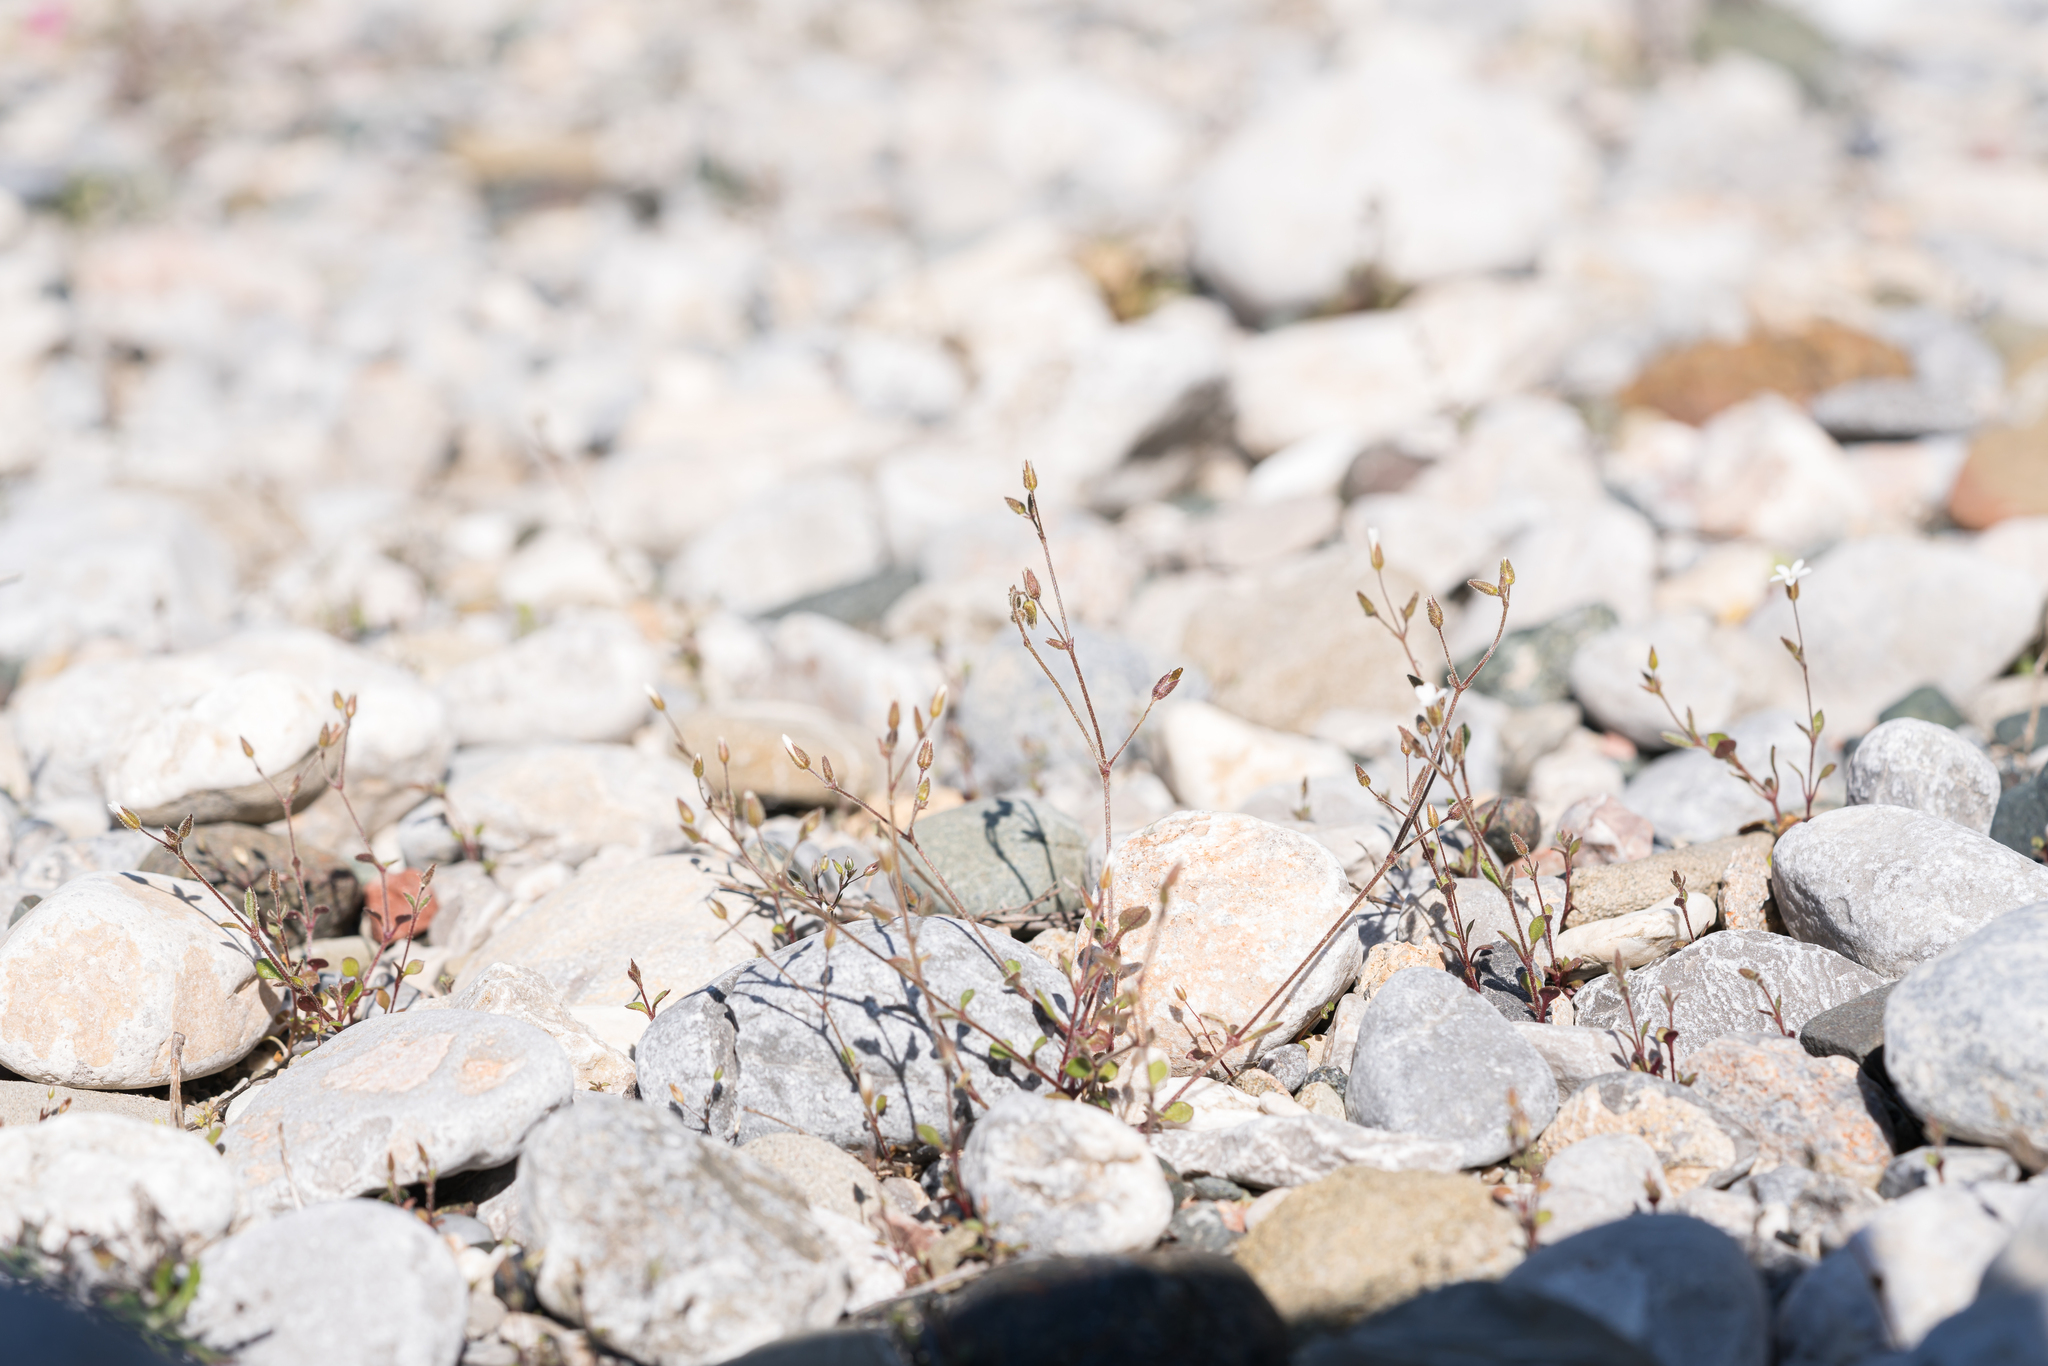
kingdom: Plantae
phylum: Tracheophyta
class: Magnoliopsida
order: Caryophyllales
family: Caryophyllaceae
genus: Arenaria
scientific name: Arenaria rhodia
